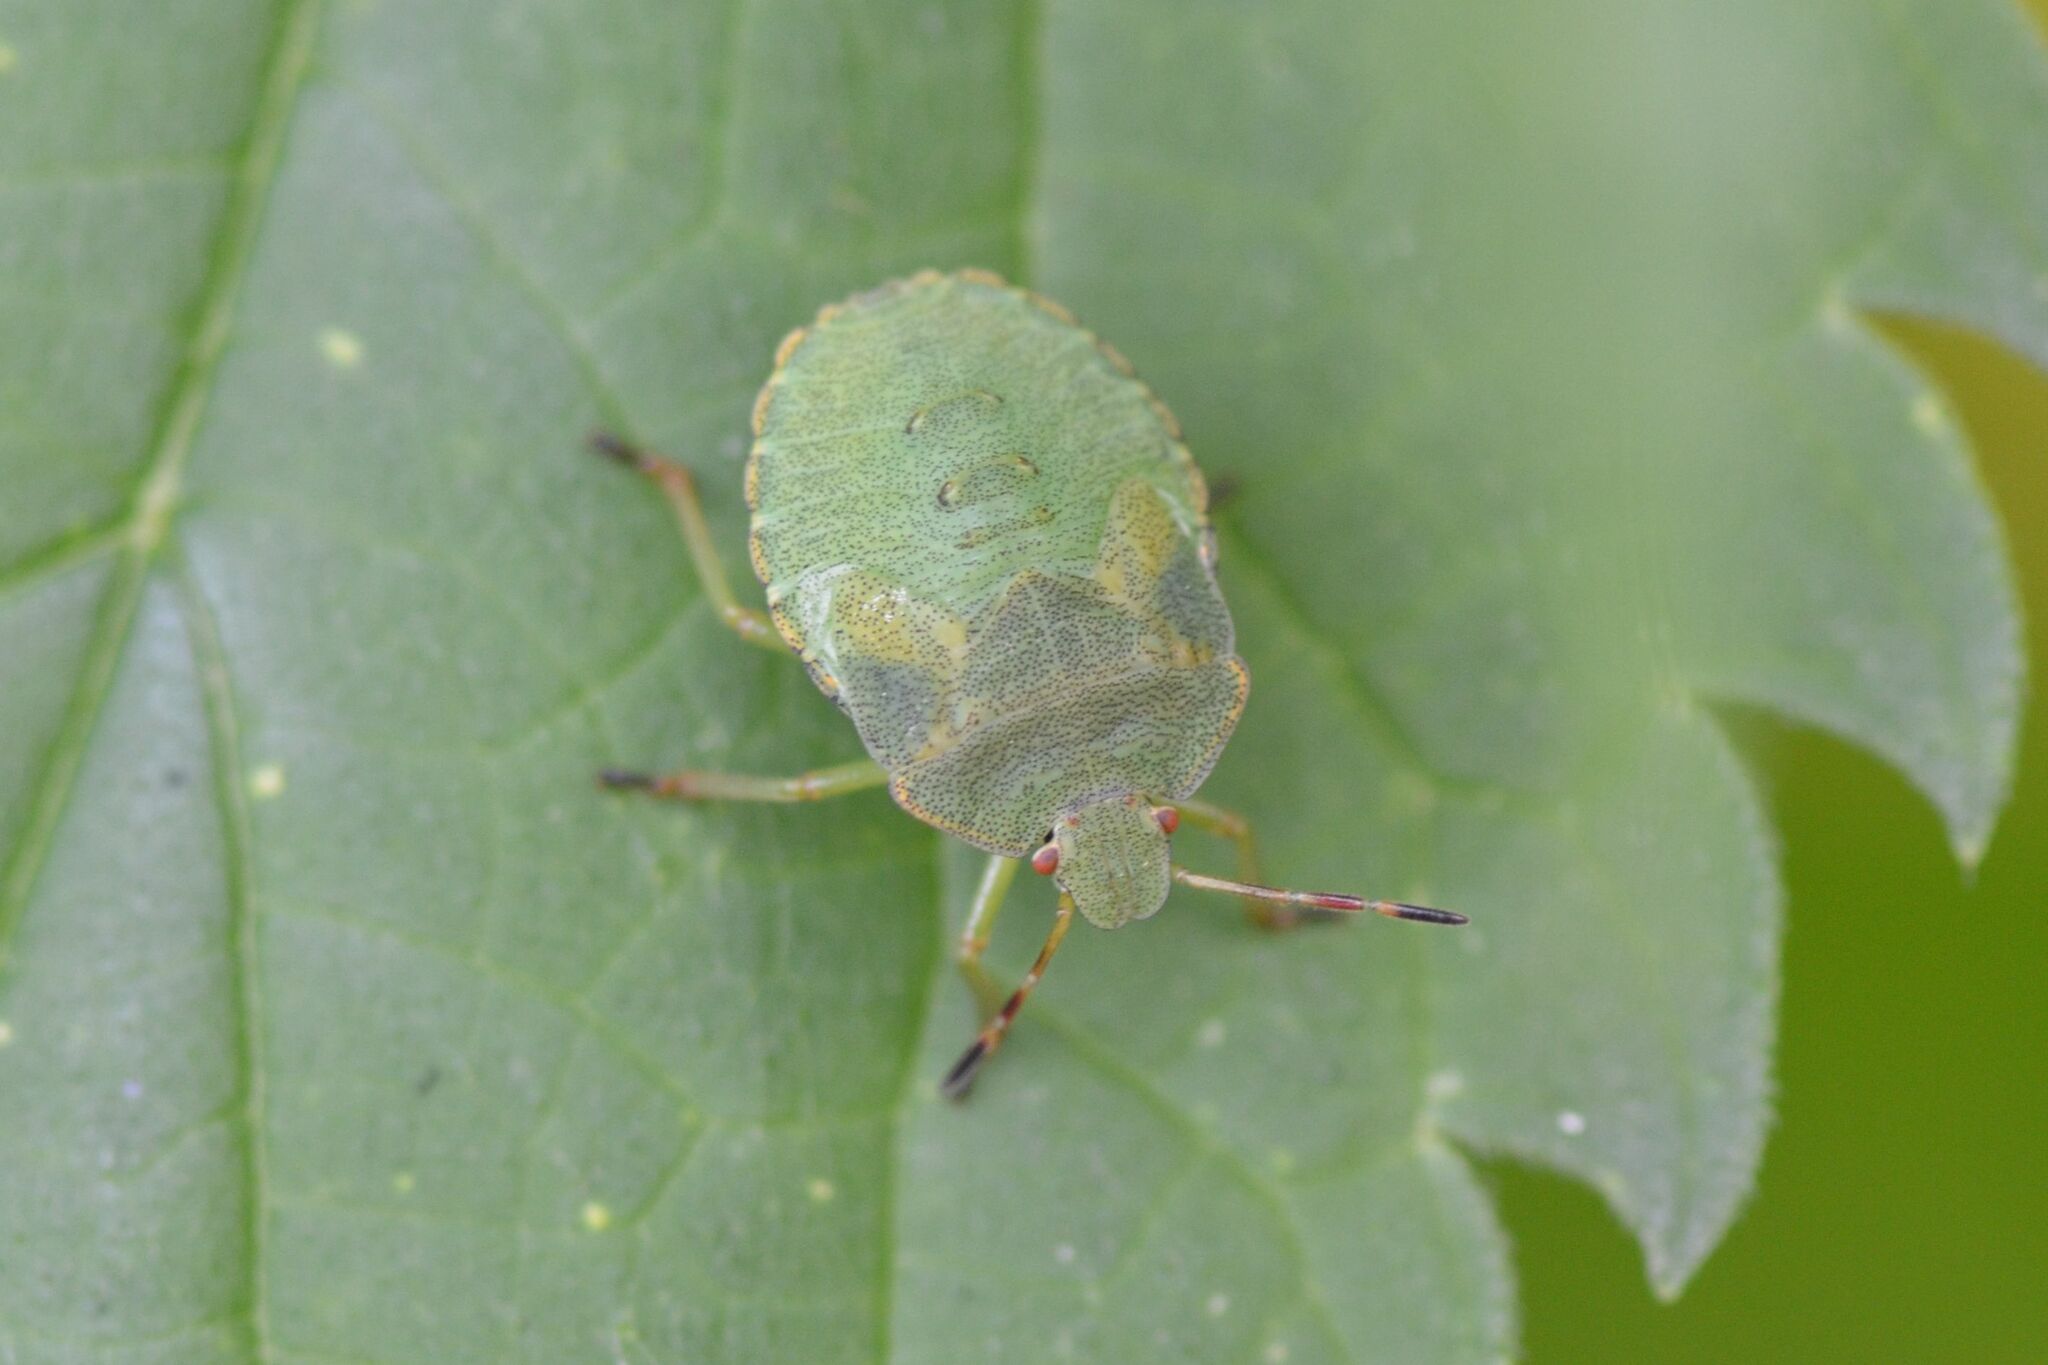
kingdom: Animalia
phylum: Arthropoda
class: Insecta
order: Hemiptera
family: Pentatomidae
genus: Palomena
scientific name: Palomena prasina
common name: Green shieldbug
